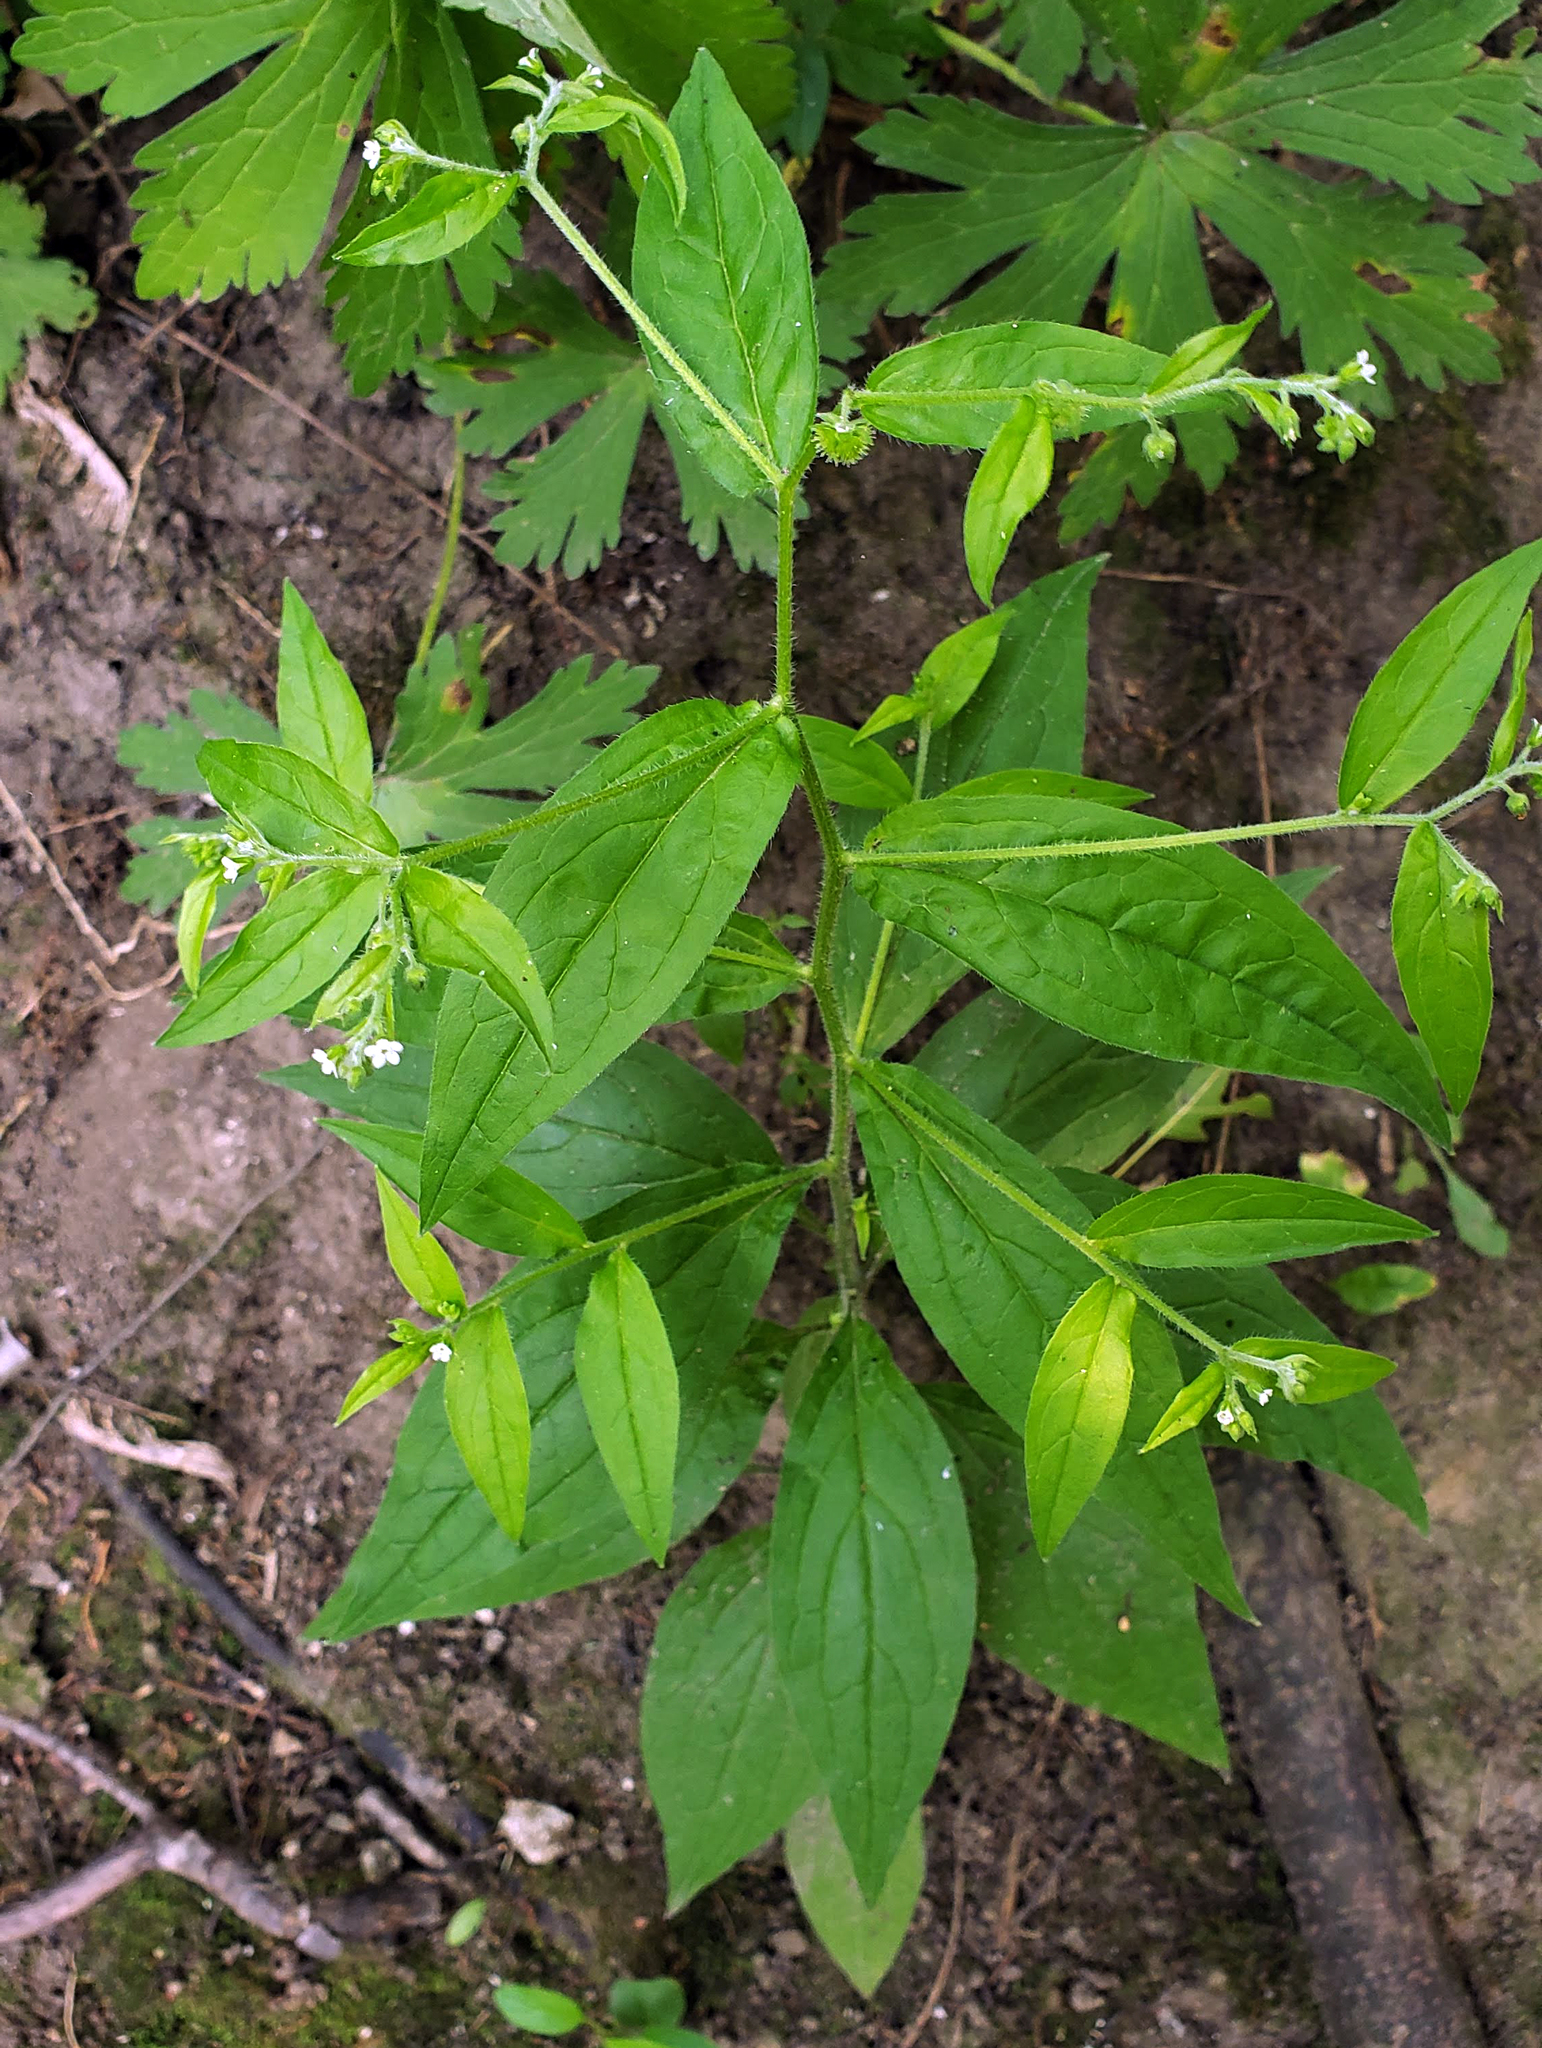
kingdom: Plantae
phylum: Tracheophyta
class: Magnoliopsida
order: Boraginales
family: Boraginaceae
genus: Hackelia
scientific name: Hackelia virginiana
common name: Beggar's-lice
